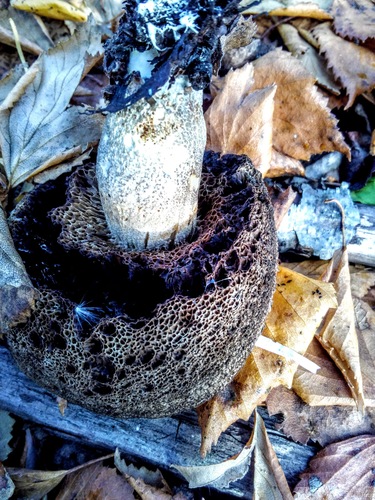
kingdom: Fungi
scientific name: Fungi
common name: Fungi
